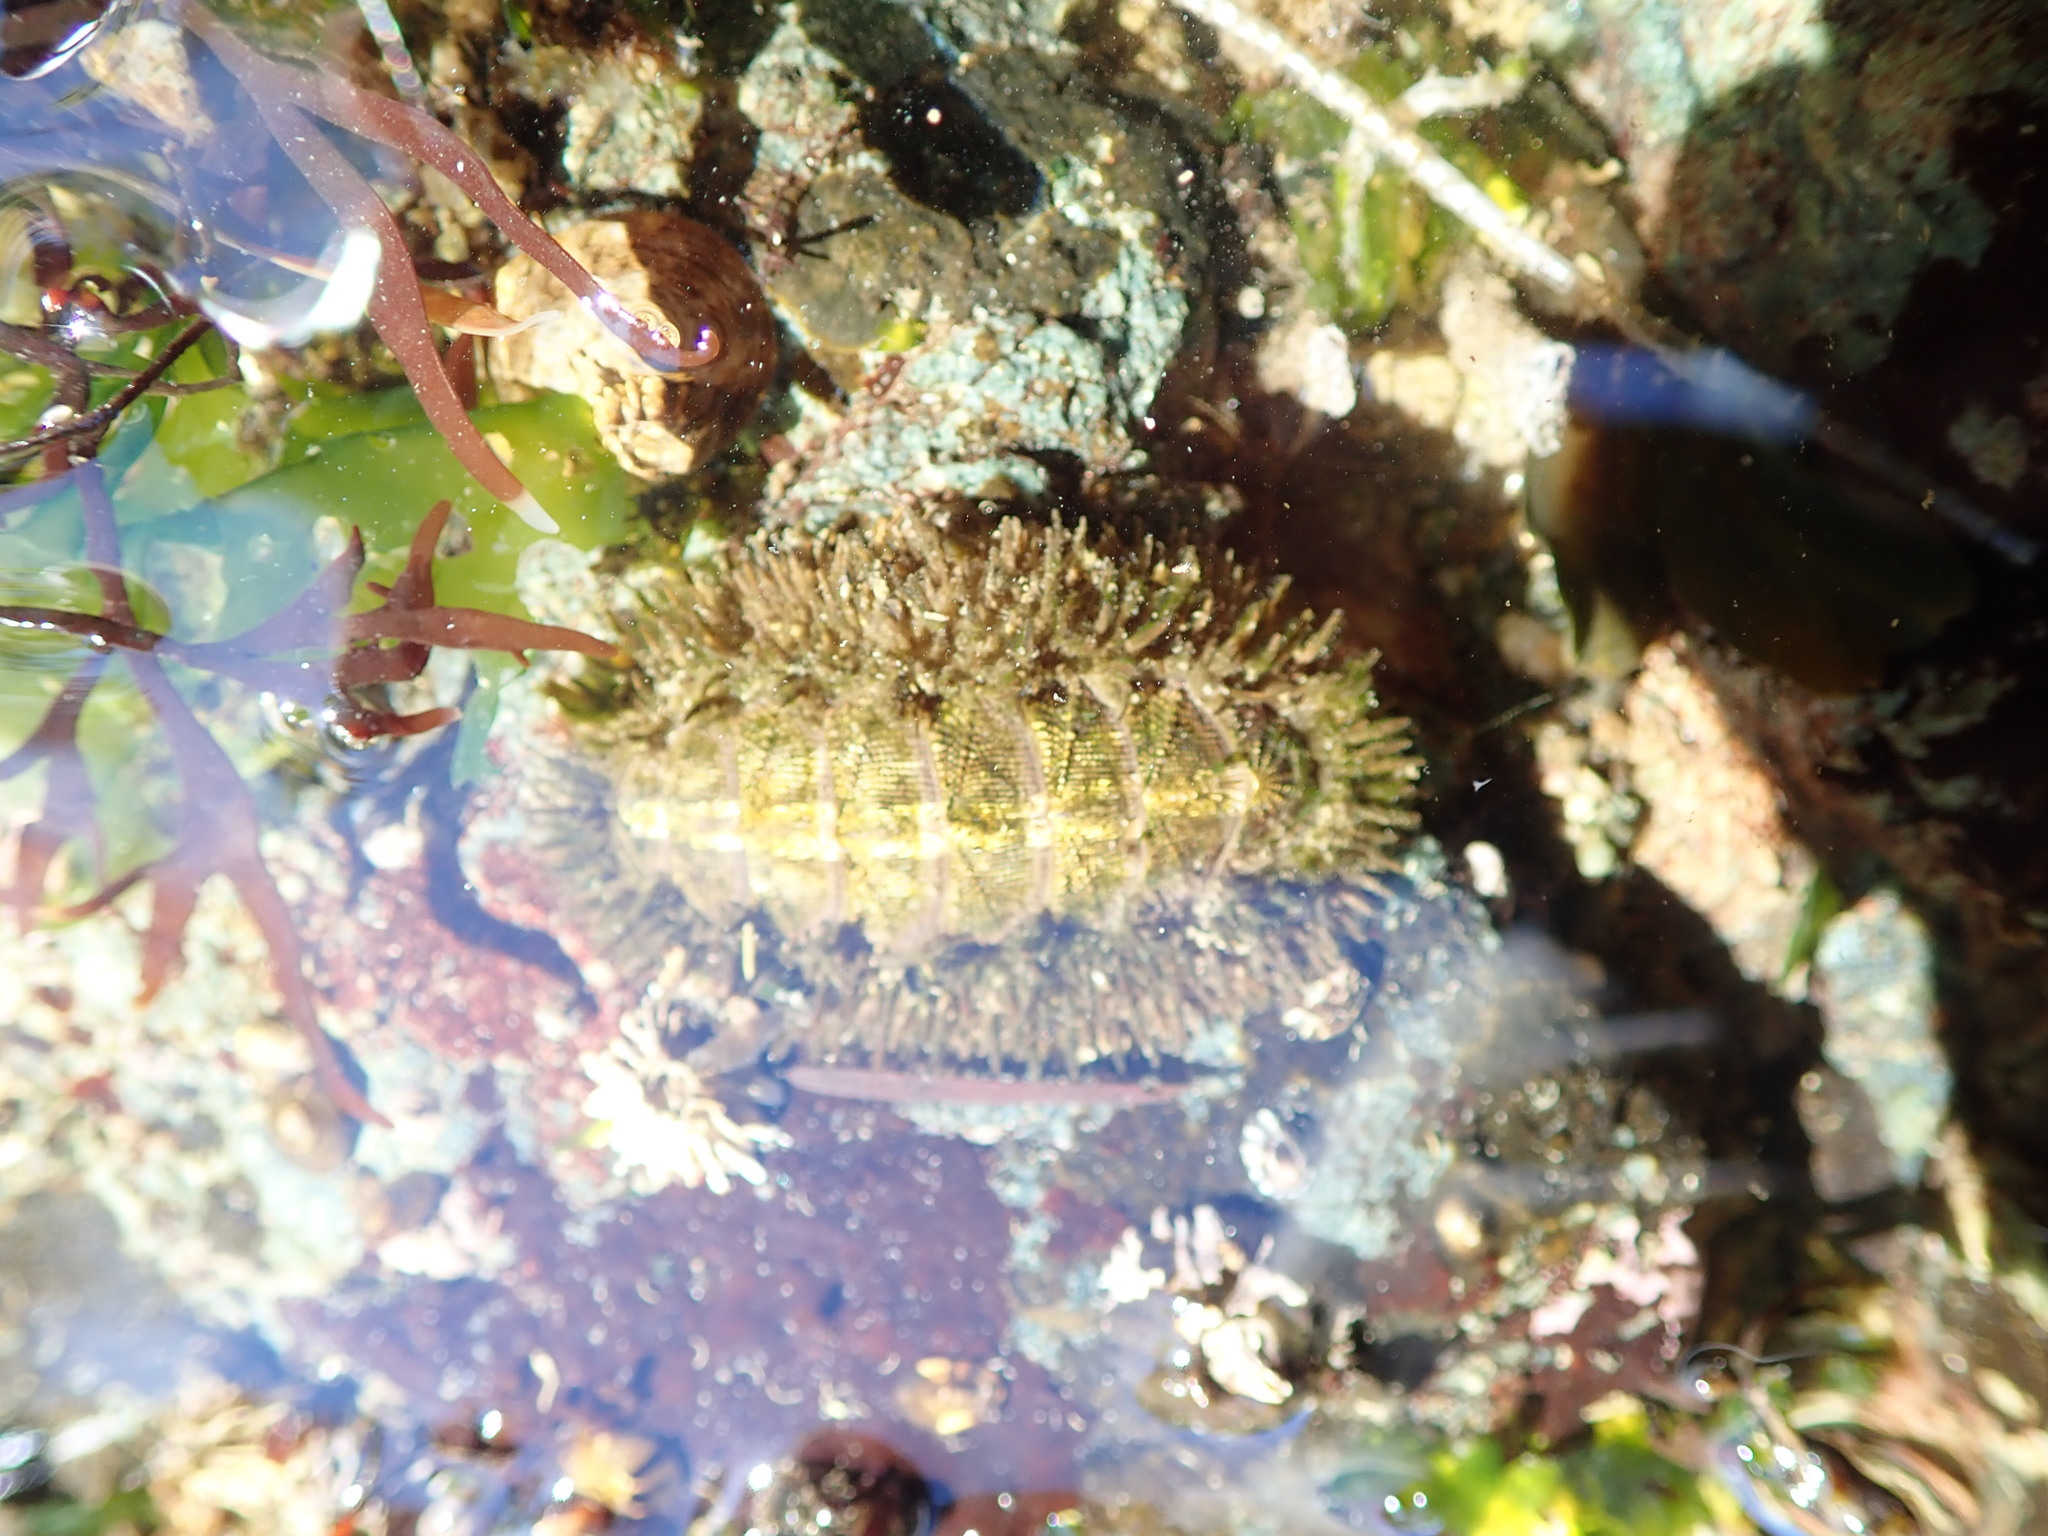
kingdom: Animalia
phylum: Mollusca
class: Polyplacophora
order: Chitonida
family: Mopaliidae
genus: Mopalia
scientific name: Mopalia muscosa
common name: Mossy chiton
